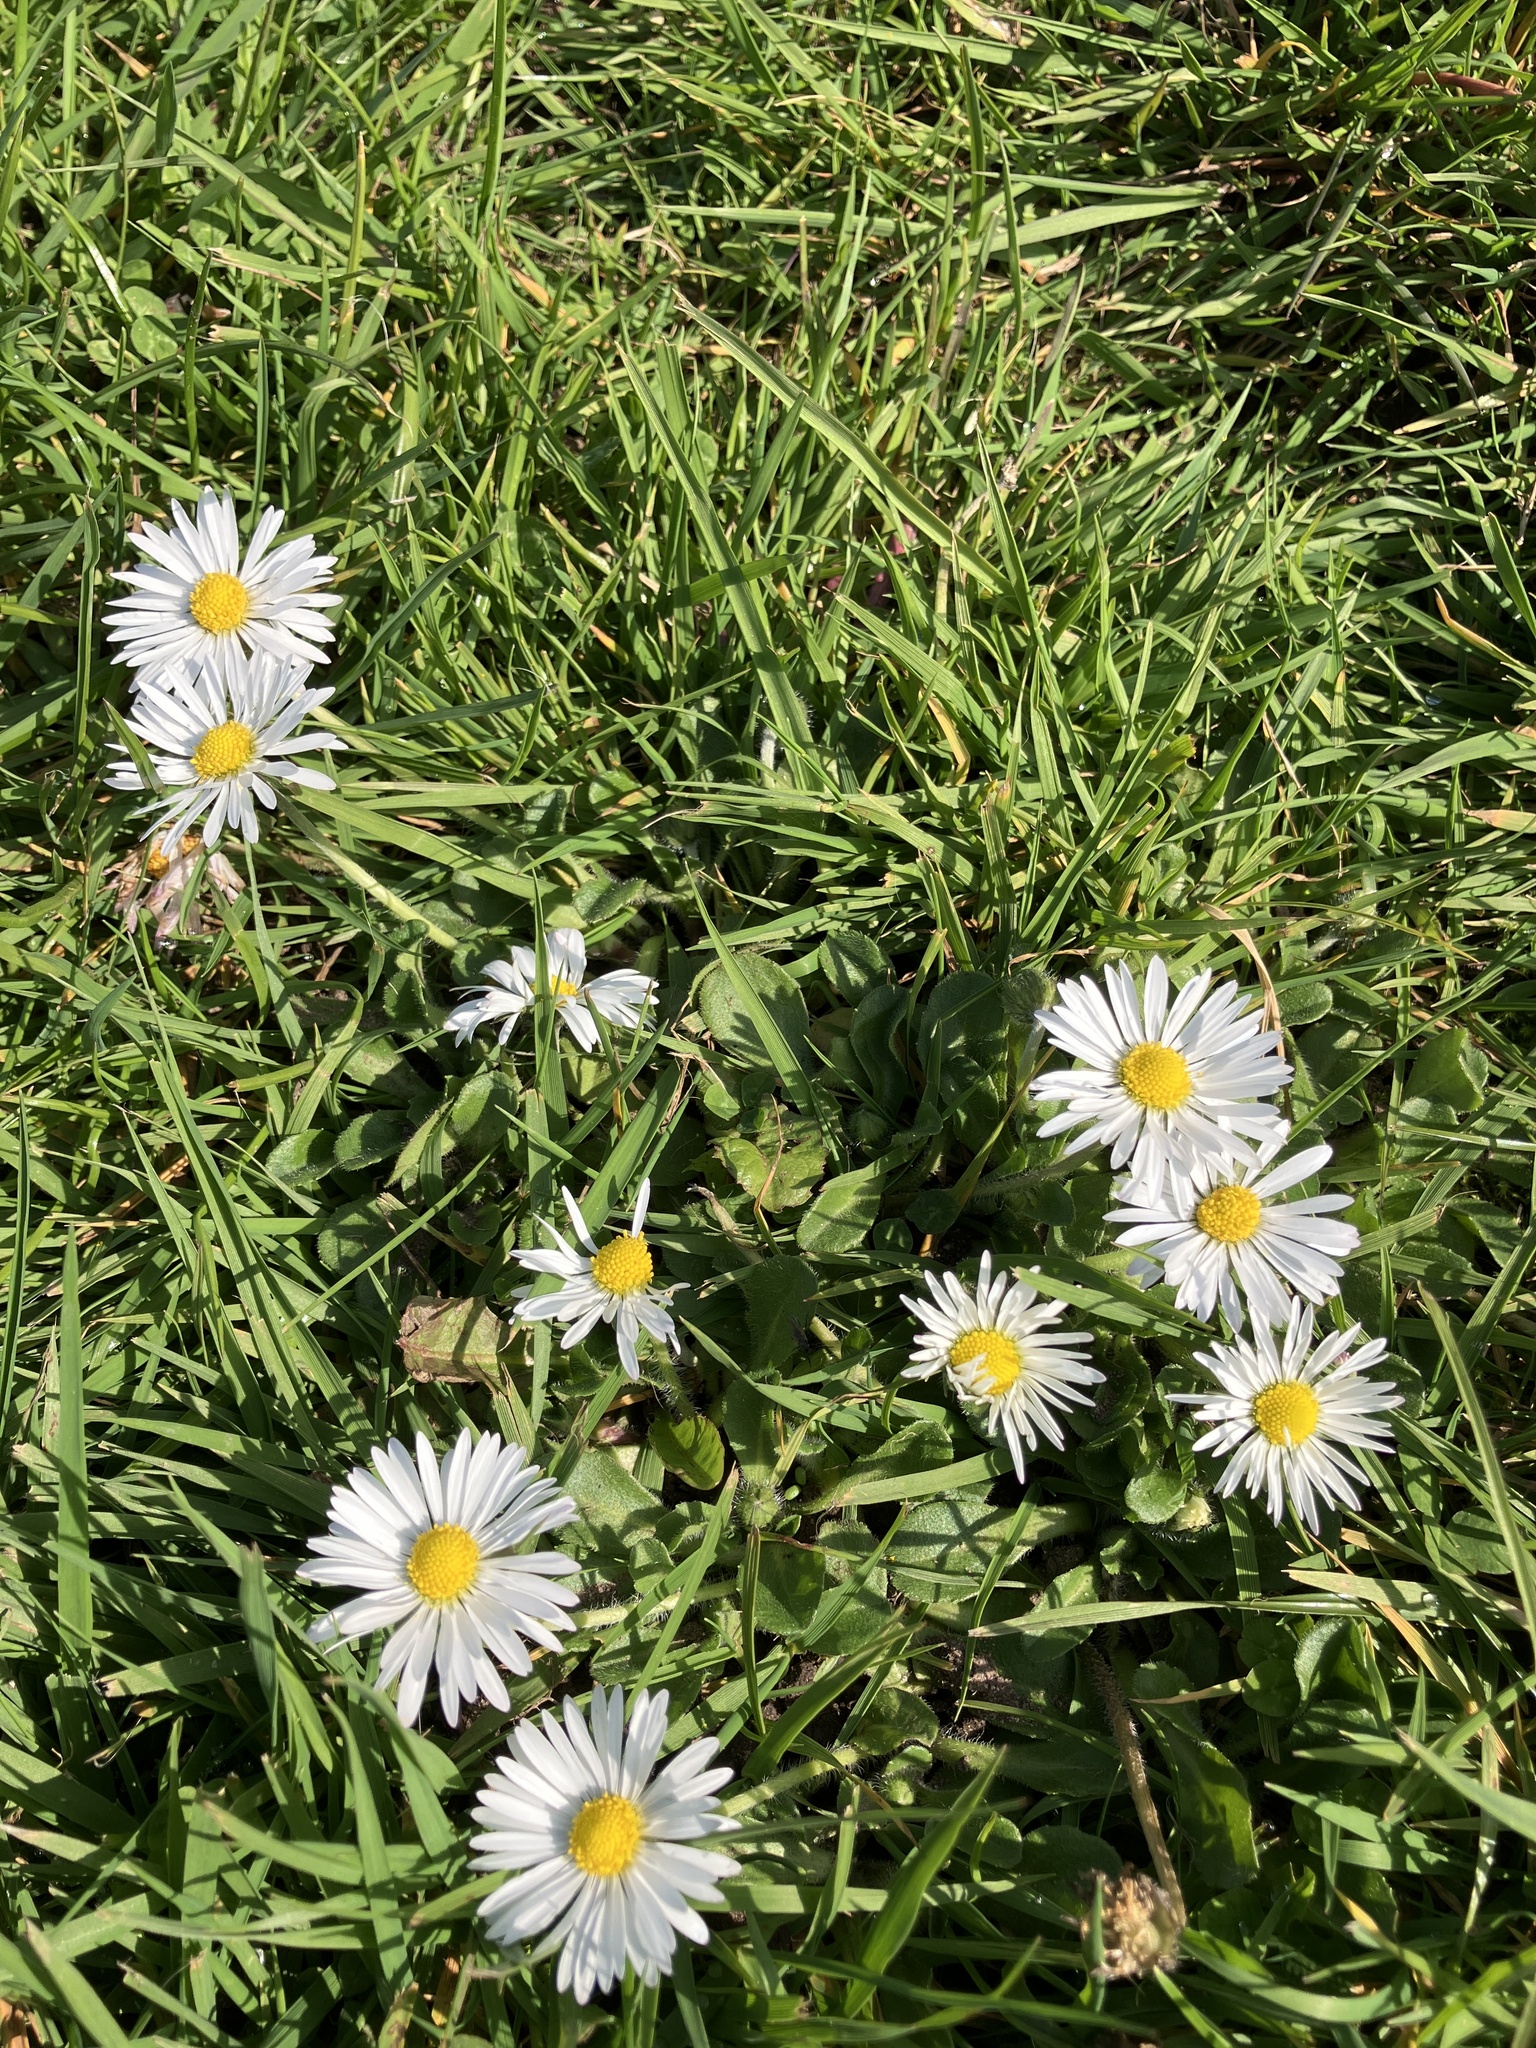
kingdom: Plantae
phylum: Tracheophyta
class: Magnoliopsida
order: Asterales
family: Asteraceae
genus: Bellis
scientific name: Bellis perennis
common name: Lawndaisy
